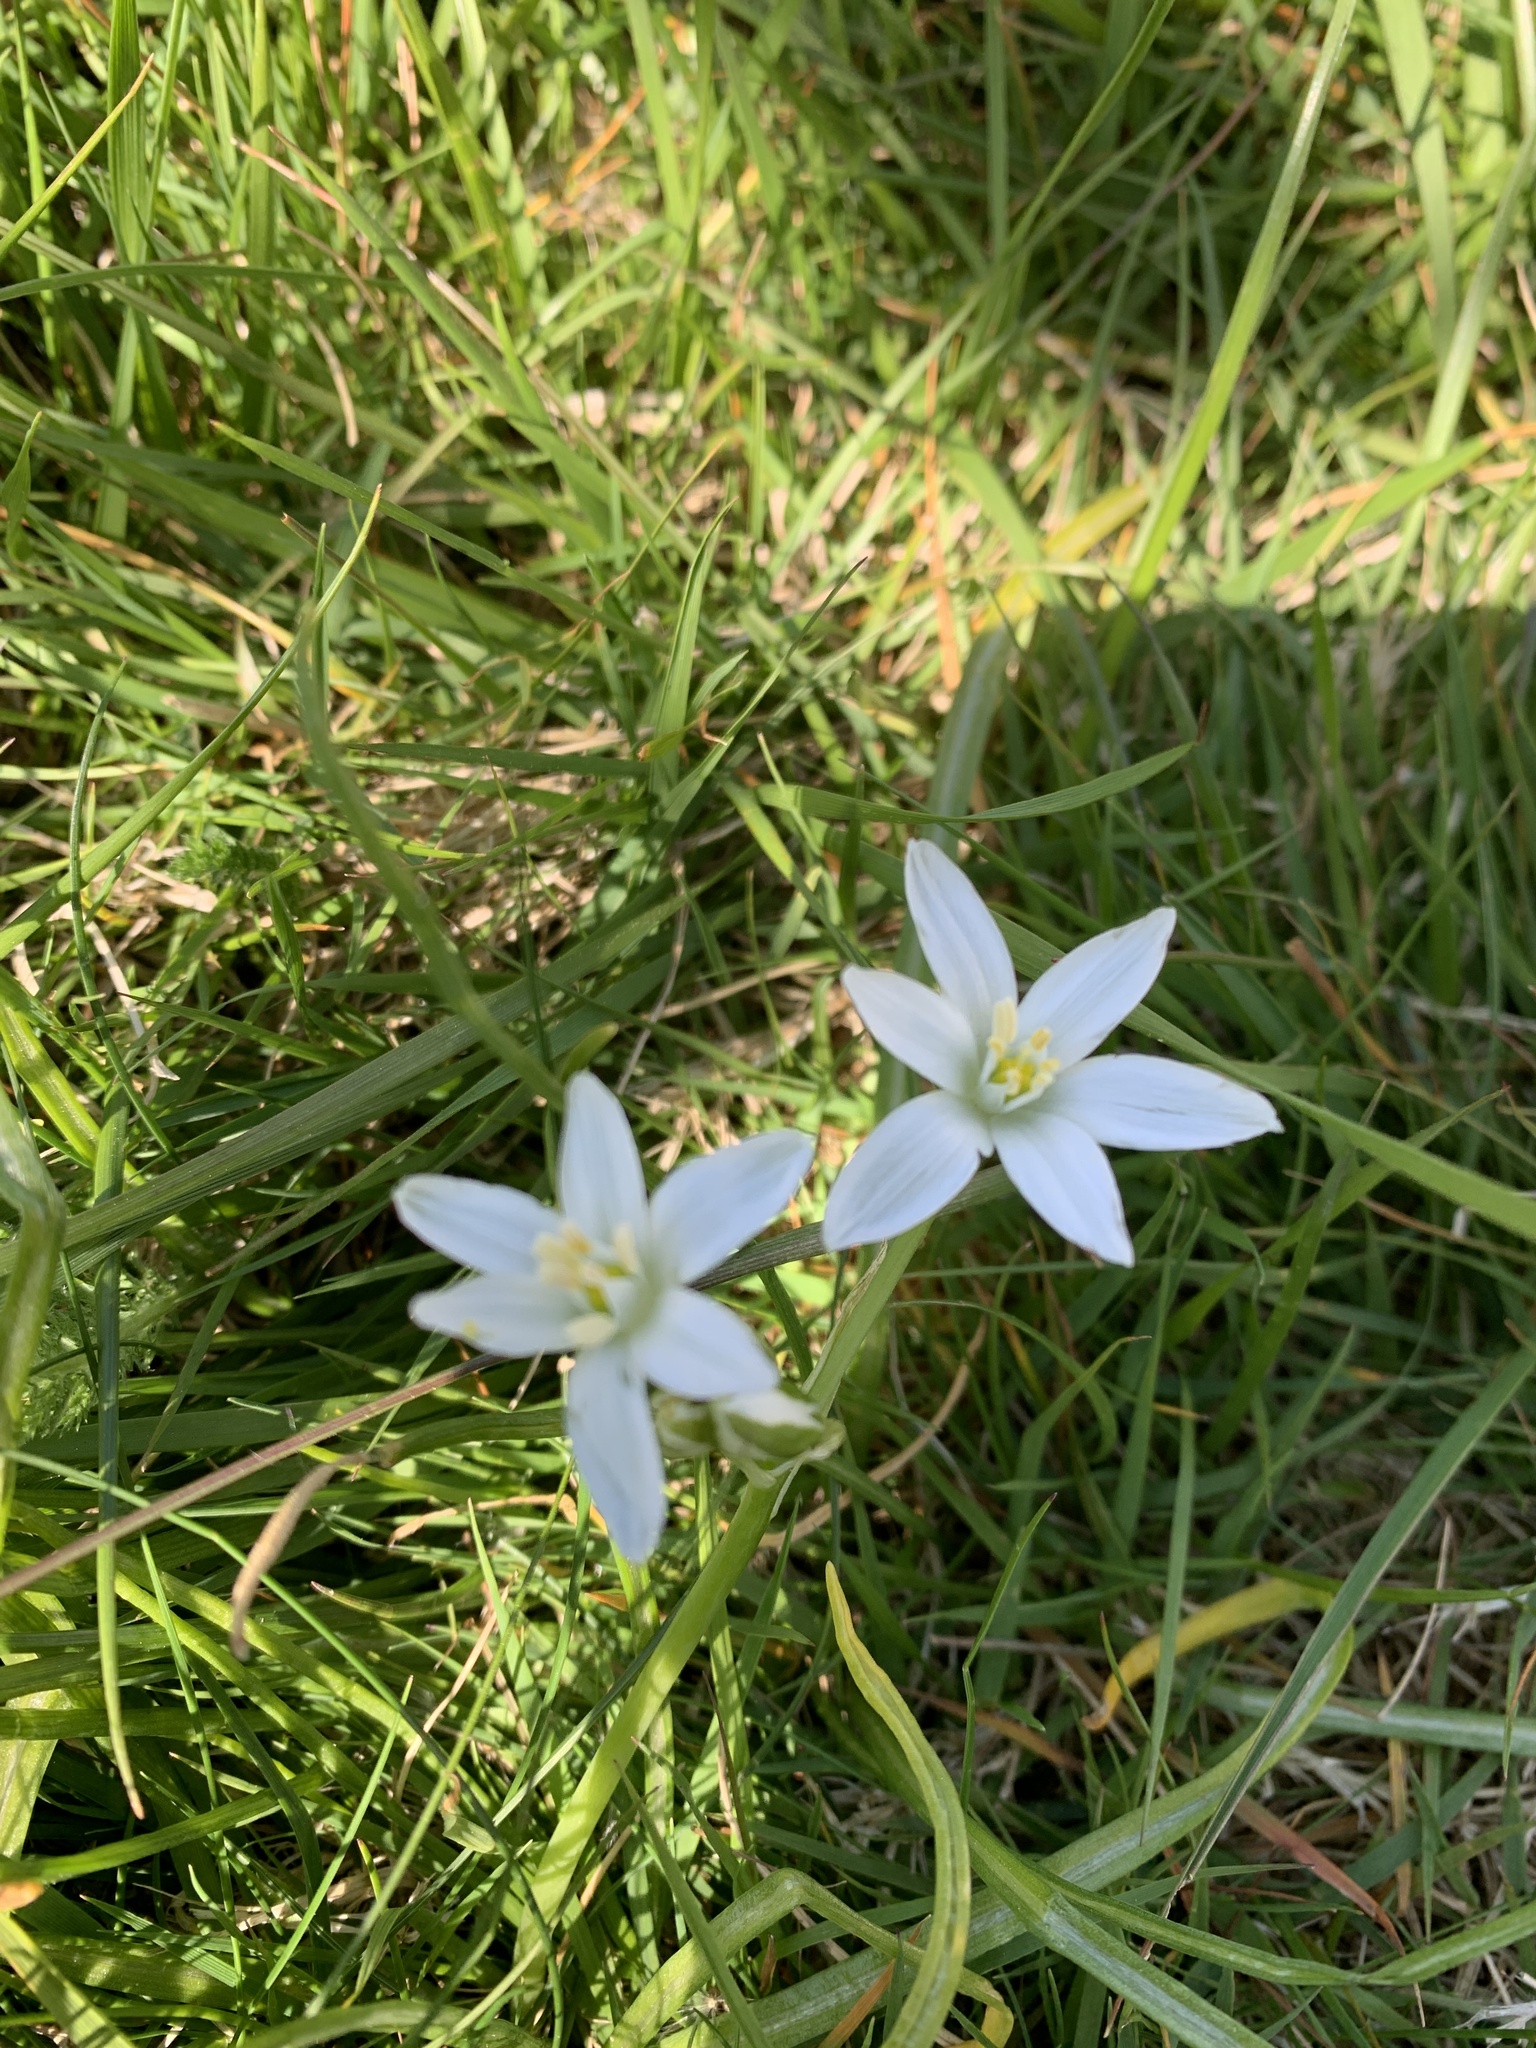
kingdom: Plantae
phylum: Tracheophyta
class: Liliopsida
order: Asparagales
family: Asparagaceae
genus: Ornithogalum
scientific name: Ornithogalum umbellatum
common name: Garden star-of-bethlehem
